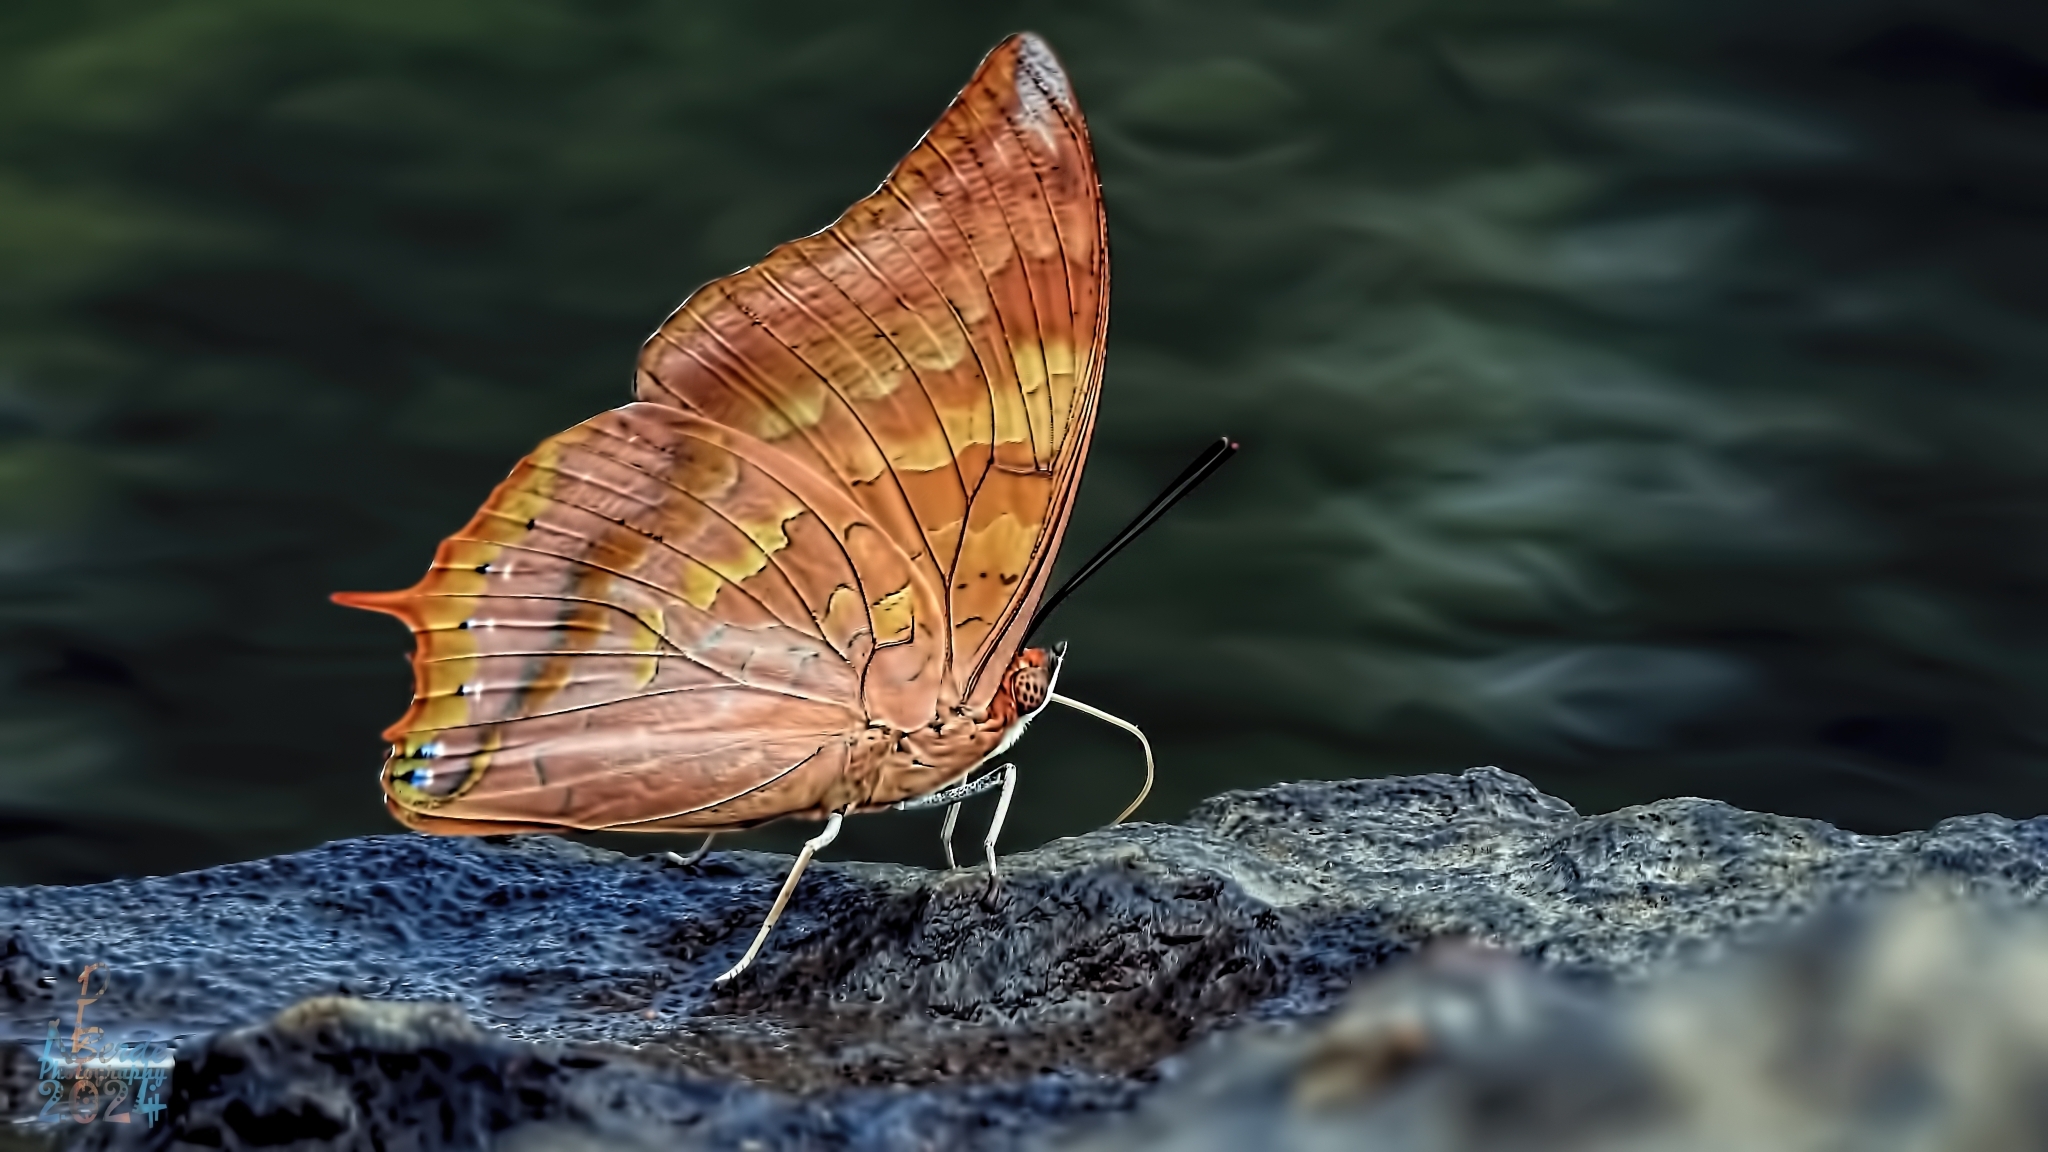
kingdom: Animalia
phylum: Arthropoda
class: Insecta
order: Lepidoptera
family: Nymphalidae
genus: Charaxes
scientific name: Charaxes psaphon
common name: Plain tawny rajah
